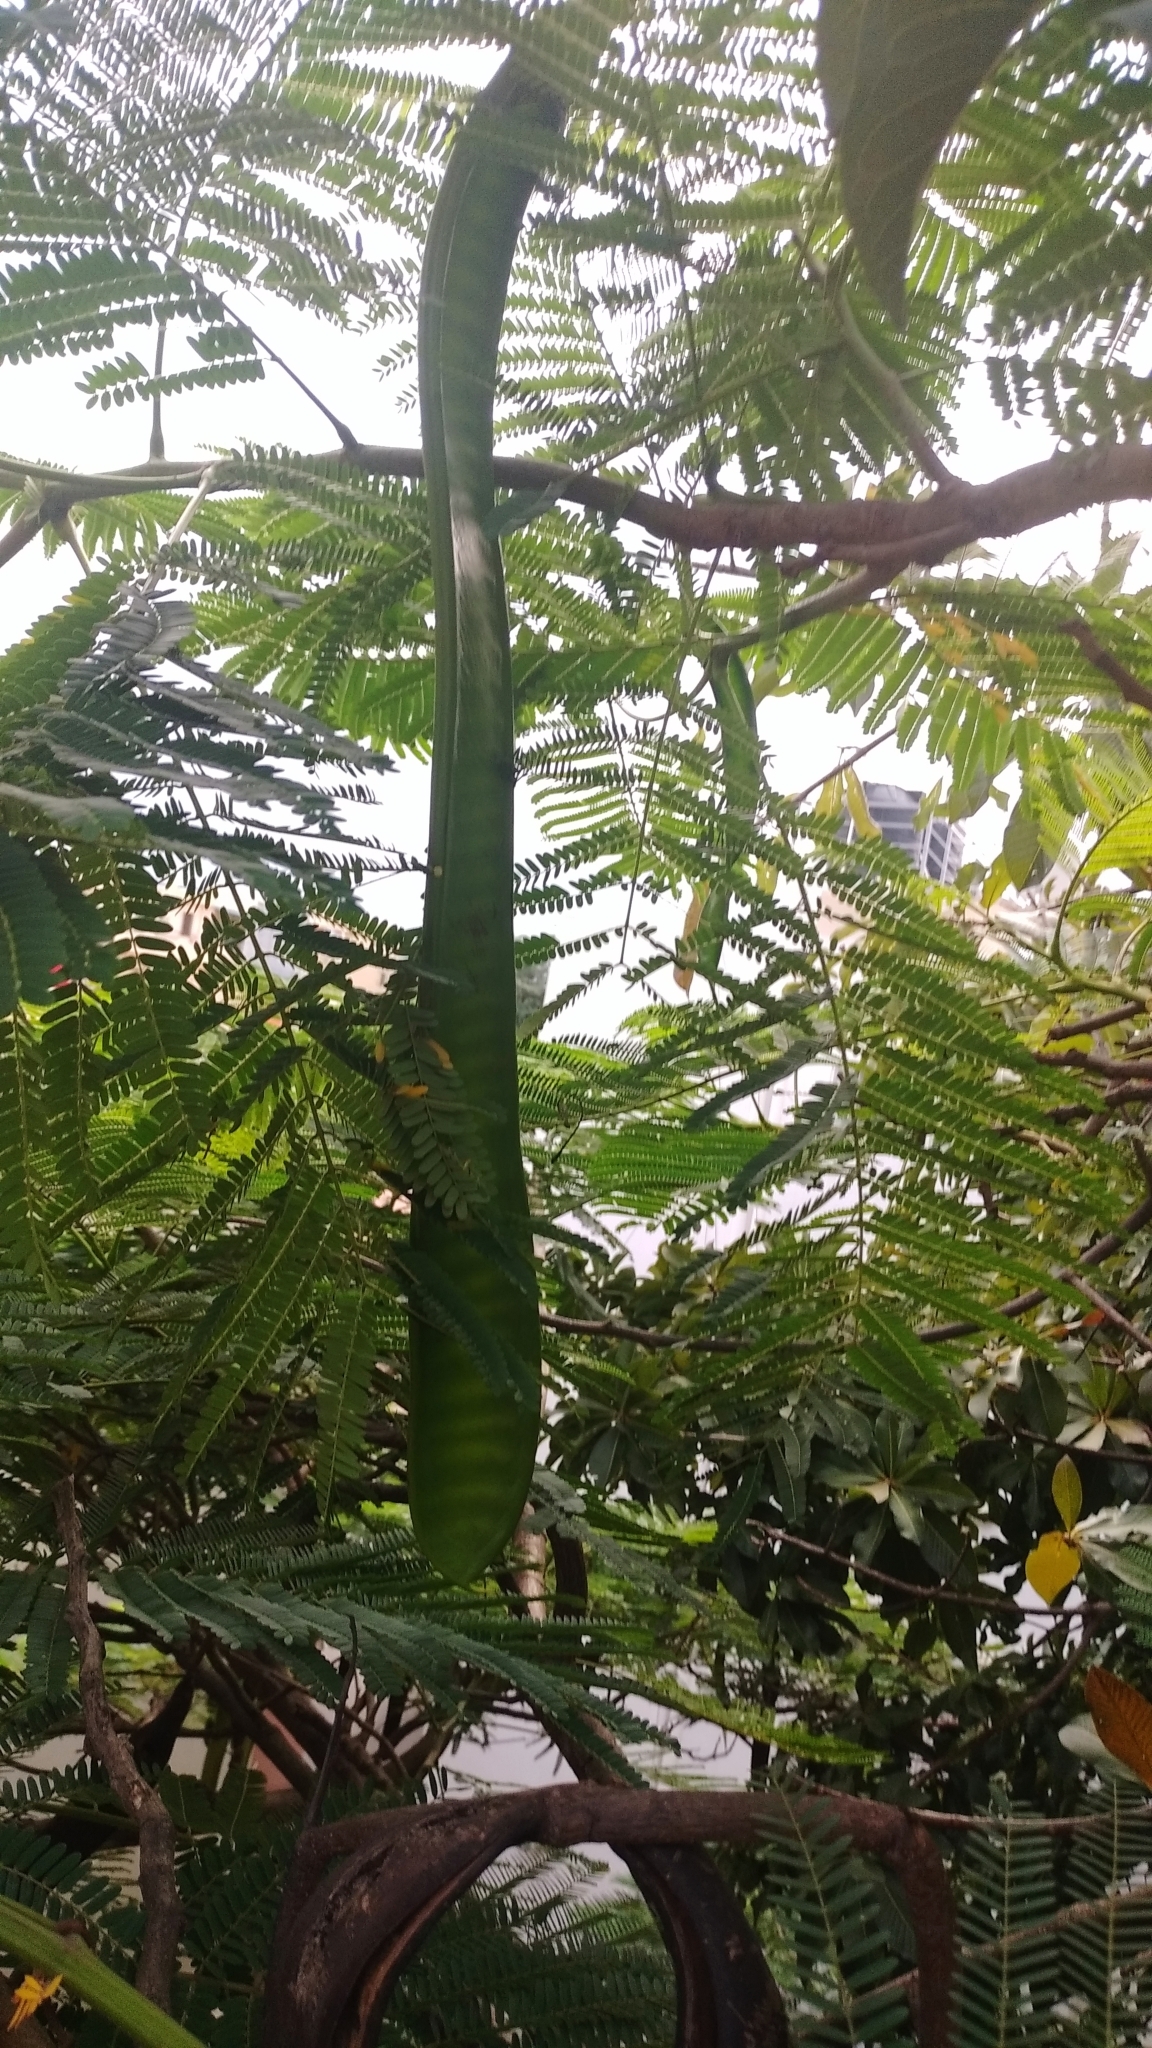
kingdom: Plantae
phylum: Tracheophyta
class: Magnoliopsida
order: Fabales
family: Fabaceae
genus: Delonix
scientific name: Delonix regia
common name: Royal poinciana
